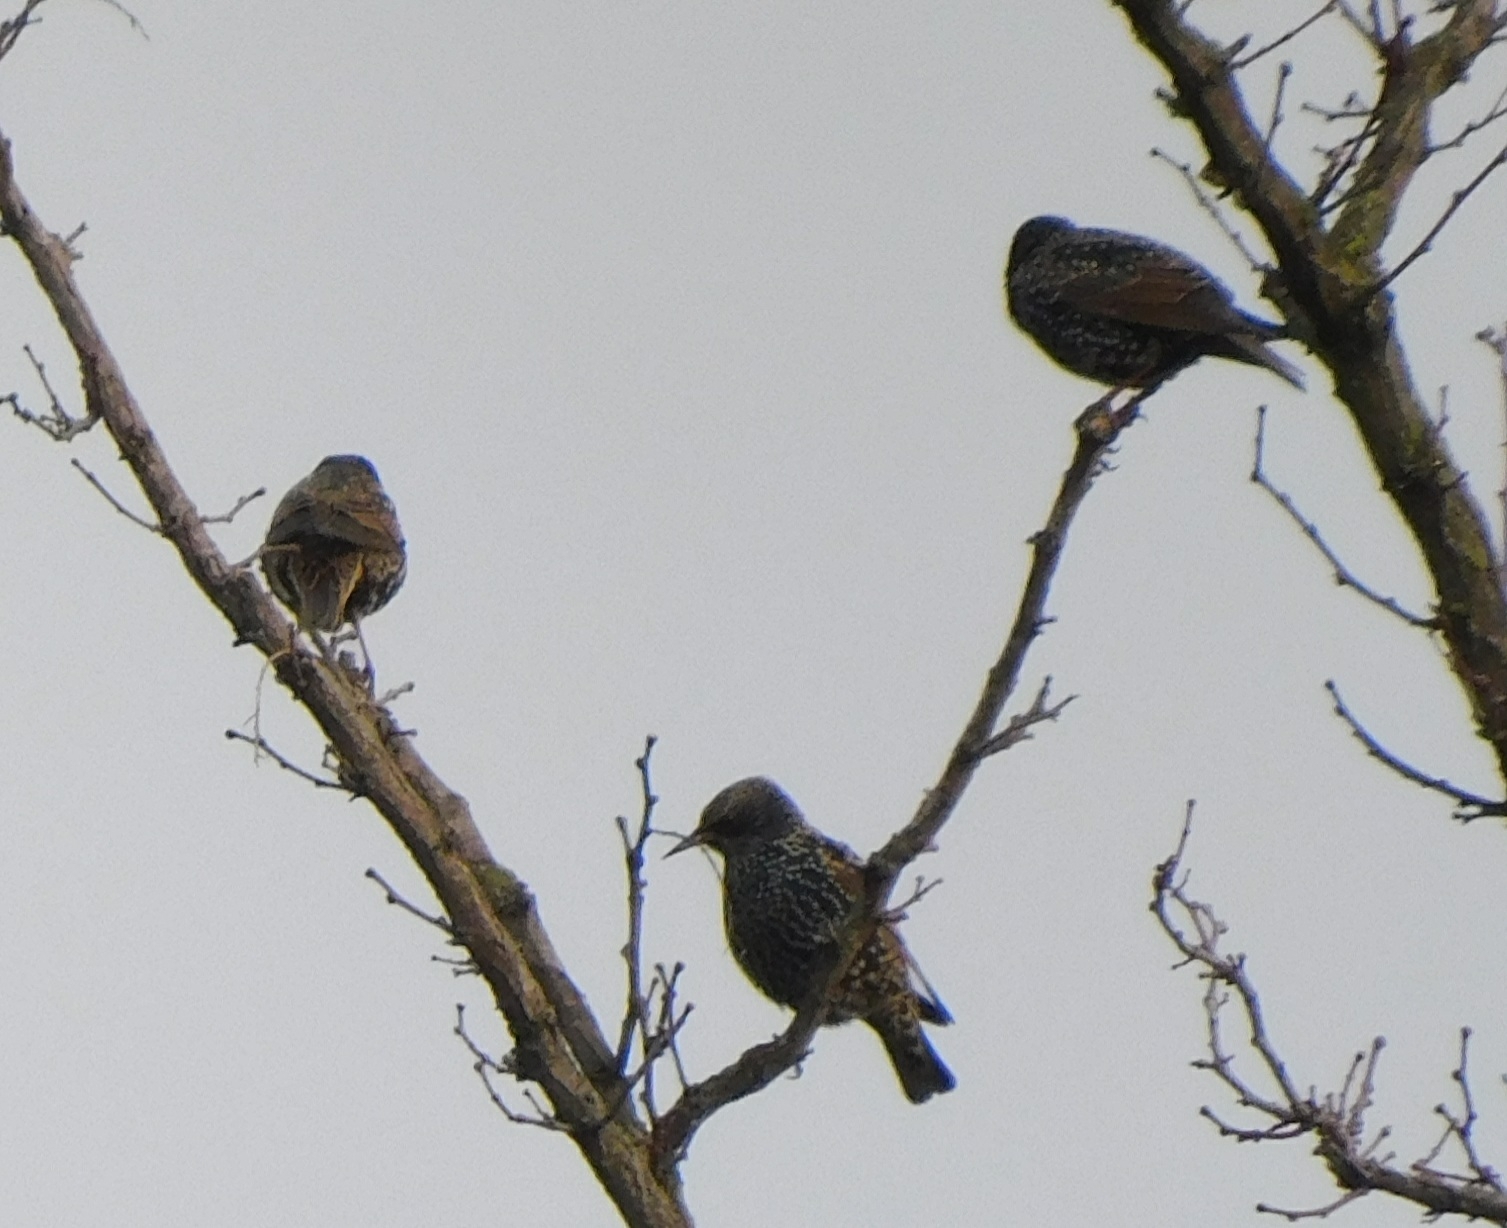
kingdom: Animalia
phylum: Chordata
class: Aves
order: Passeriformes
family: Sturnidae
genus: Sturnus
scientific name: Sturnus vulgaris
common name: Common starling
